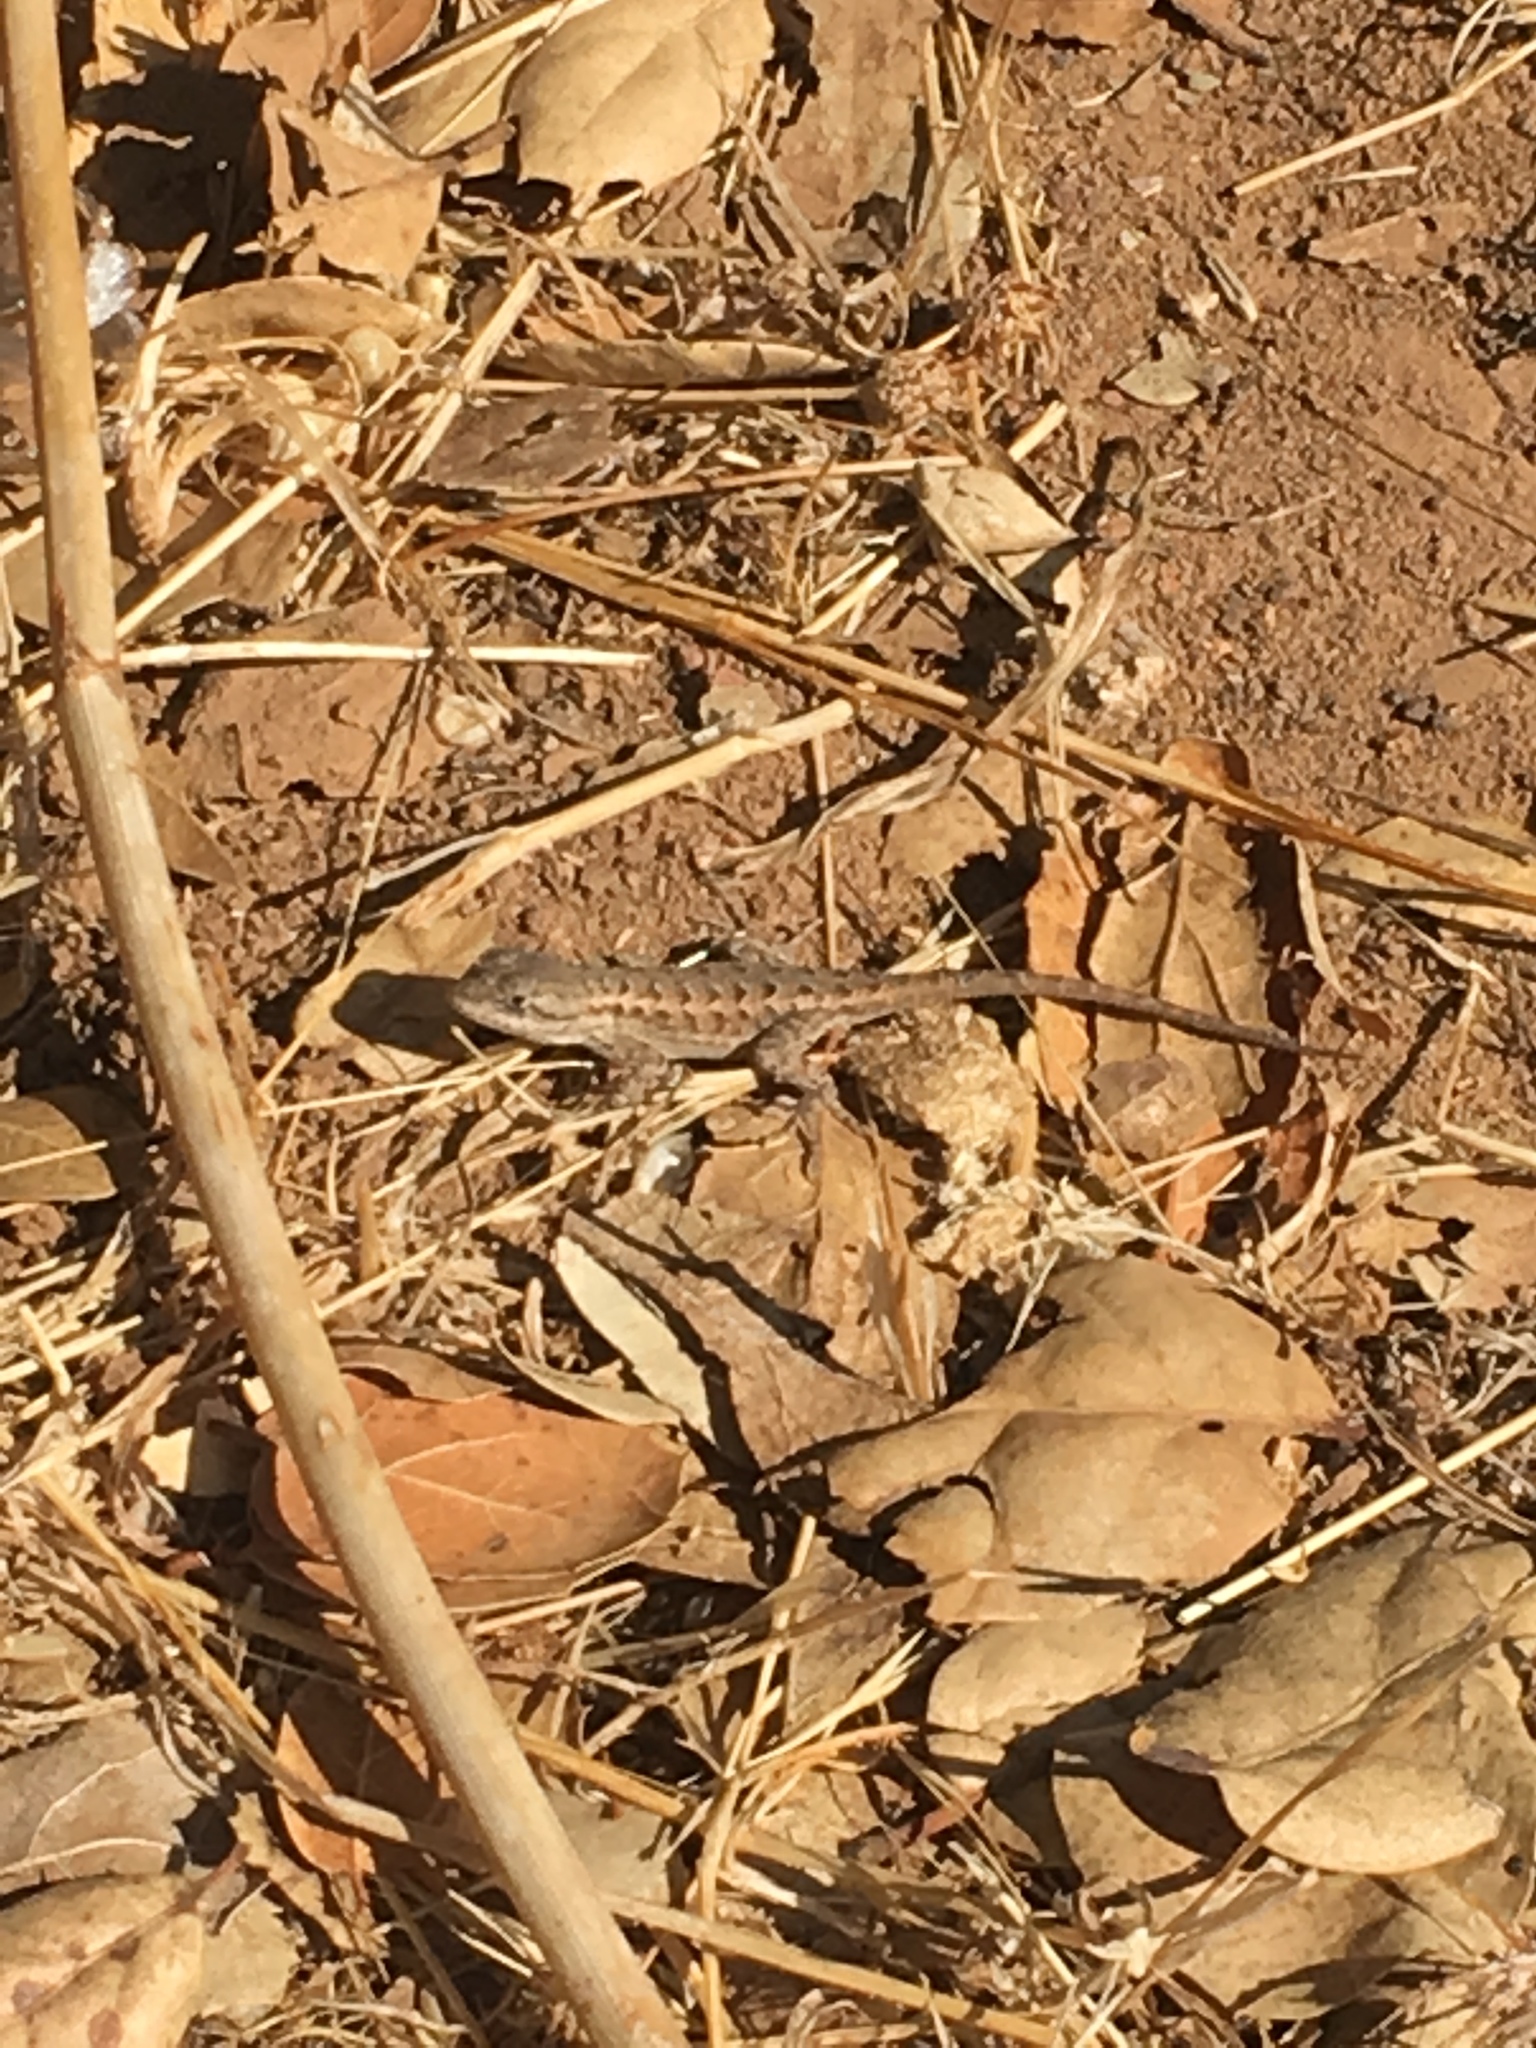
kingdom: Animalia
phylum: Chordata
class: Squamata
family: Phrynosomatidae
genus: Sceloporus
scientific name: Sceloporus occidentalis
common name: Western fence lizard
